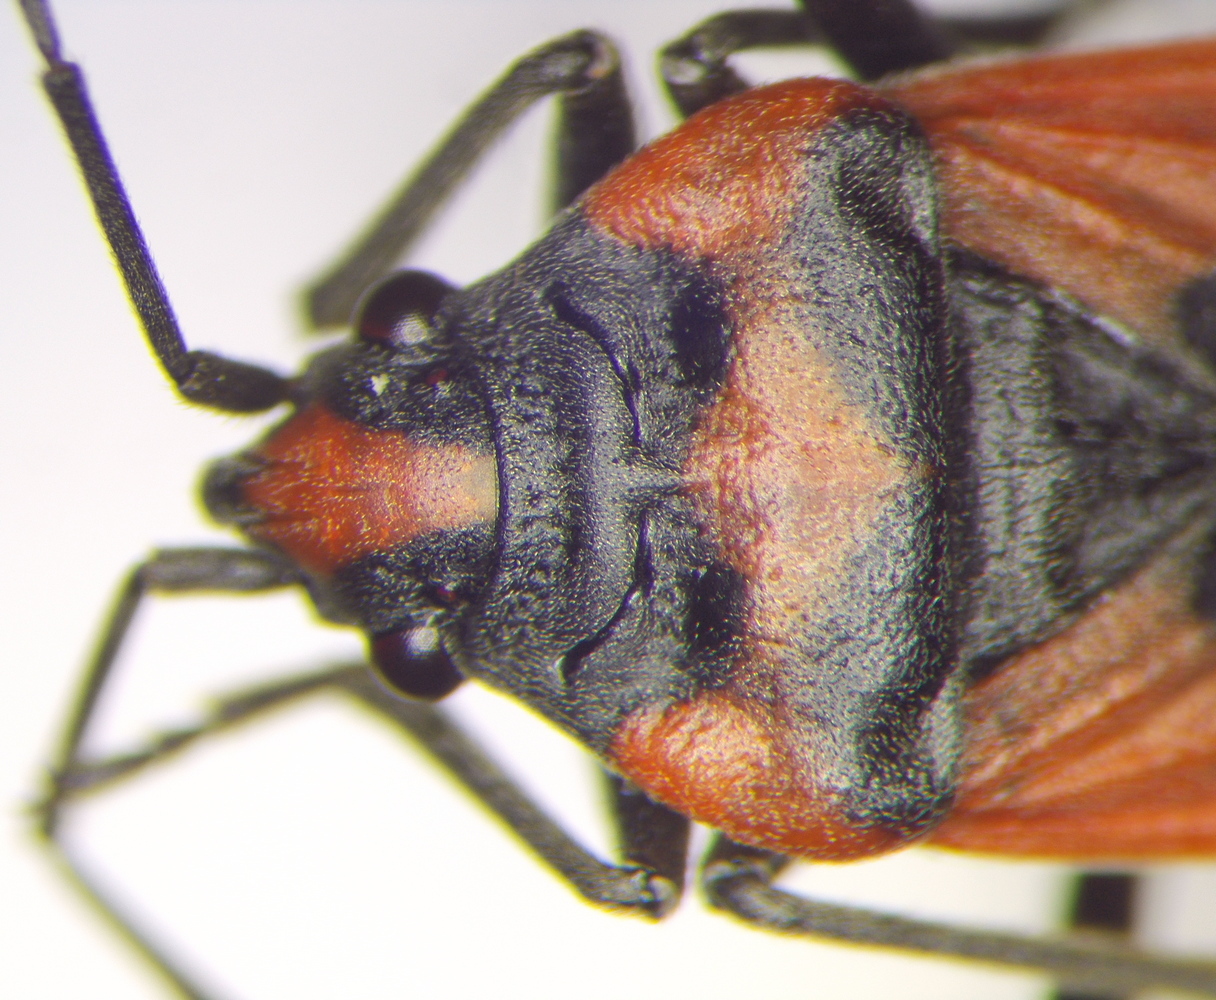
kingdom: Animalia
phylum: Arthropoda
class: Insecta
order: Hemiptera
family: Lygaeidae
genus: Lygaeus
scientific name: Lygaeus equestris
